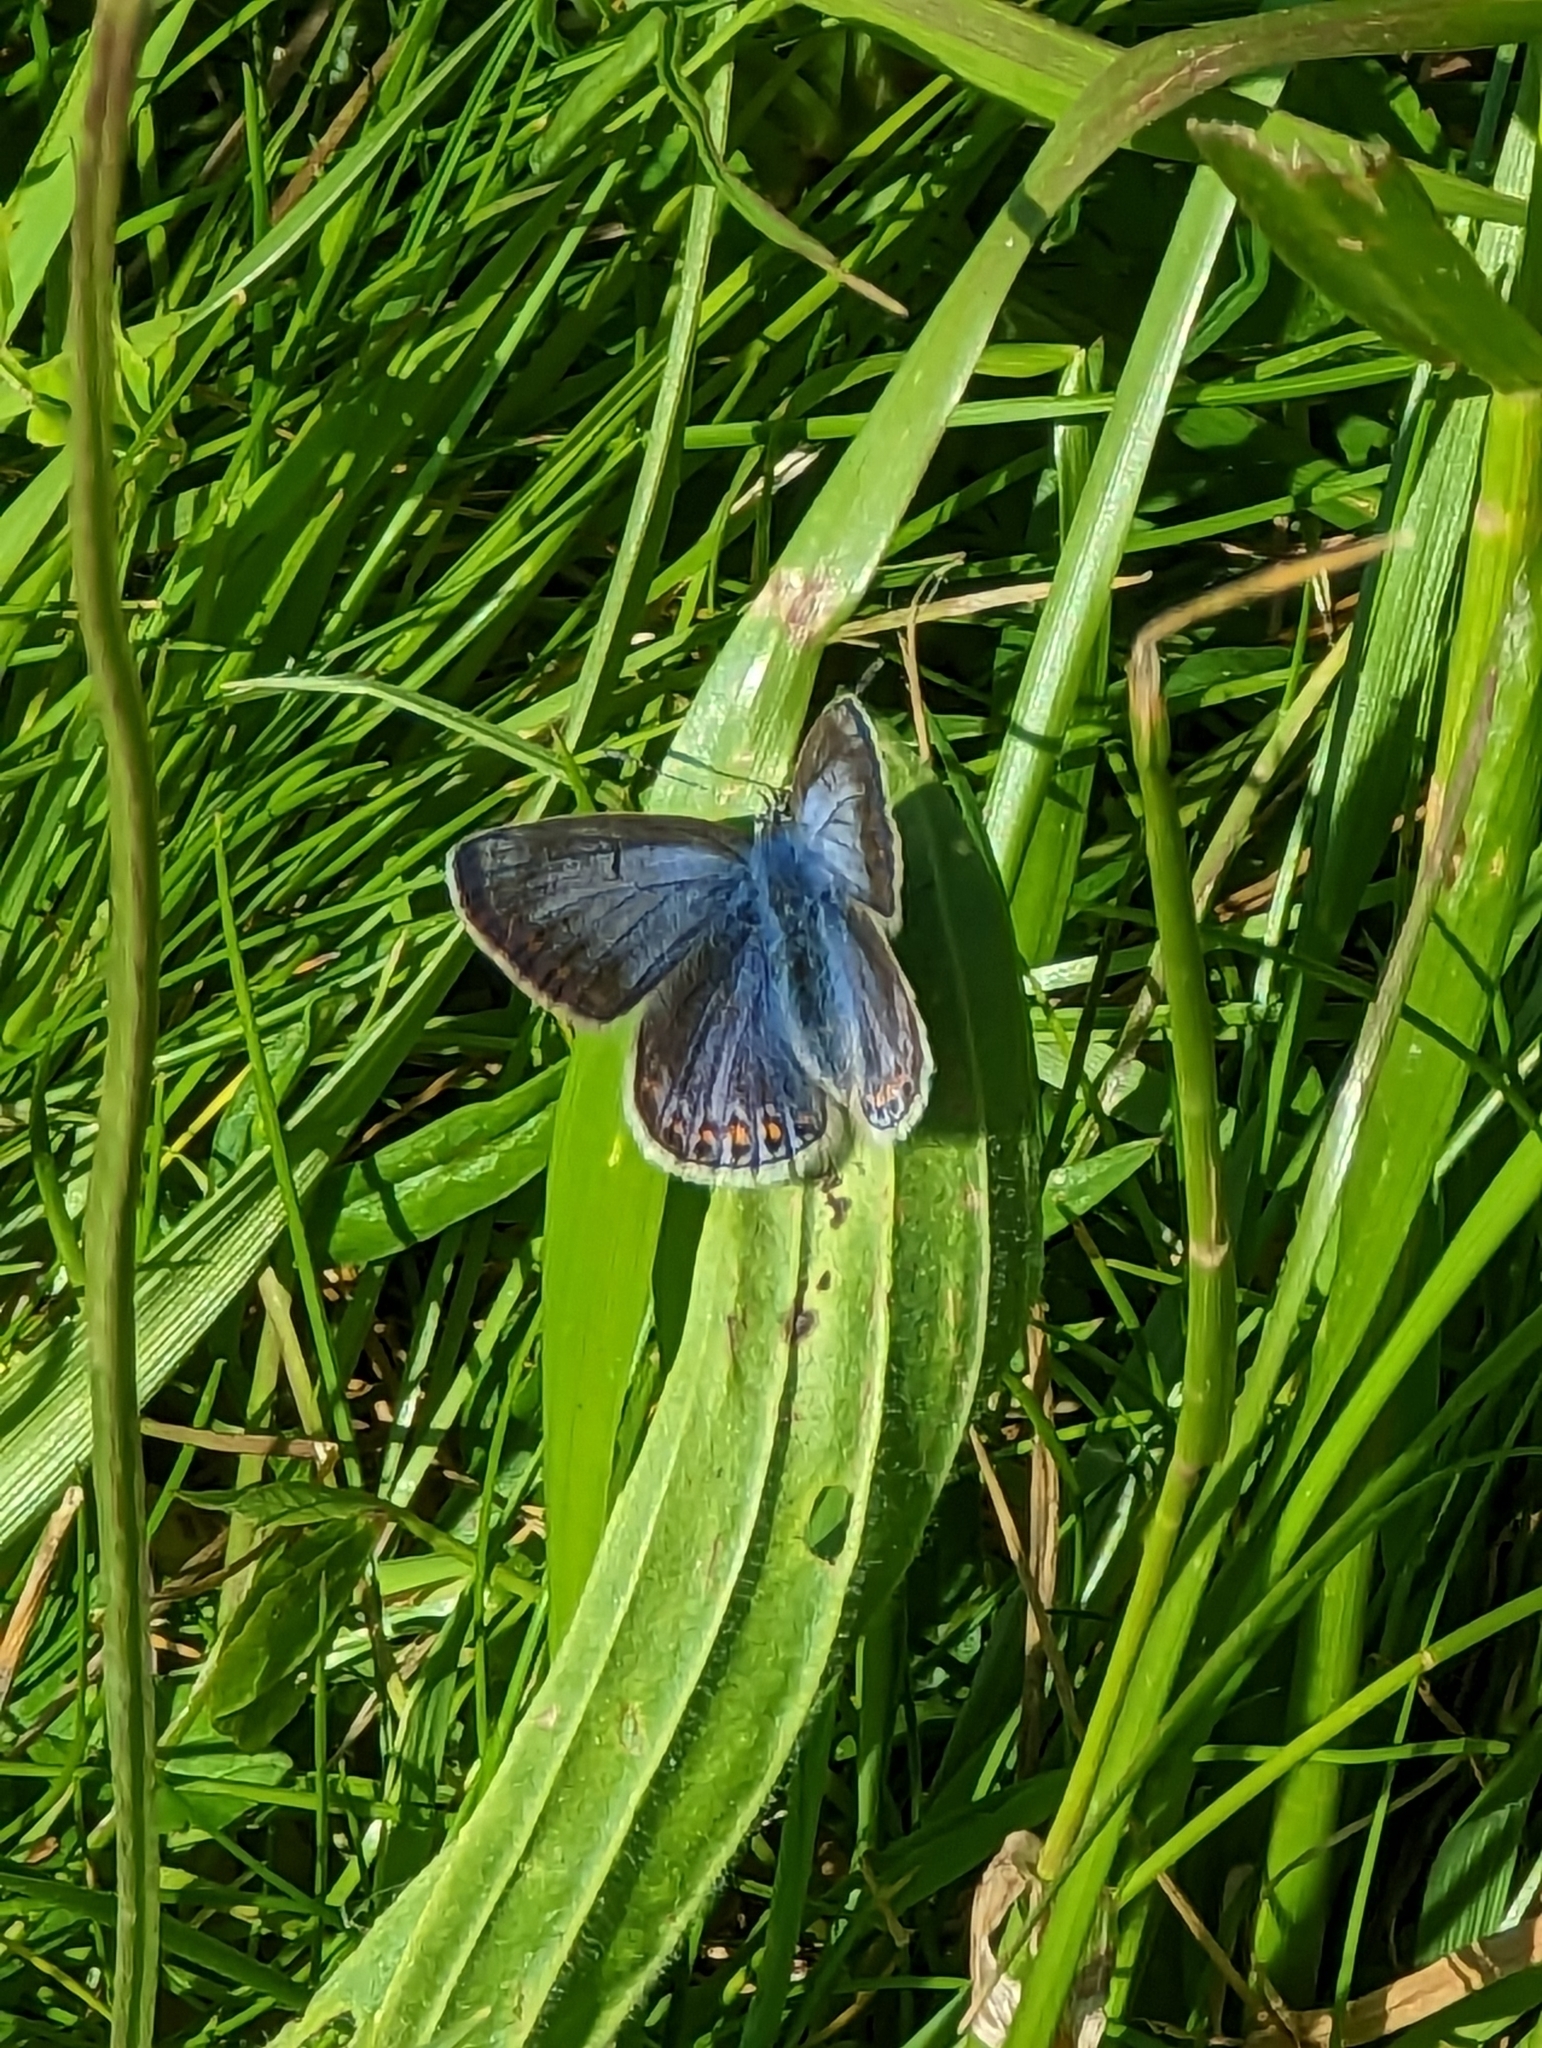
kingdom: Animalia
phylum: Arthropoda
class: Insecta
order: Lepidoptera
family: Lycaenidae
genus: Polyommatus
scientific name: Polyommatus icarus
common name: Common blue
